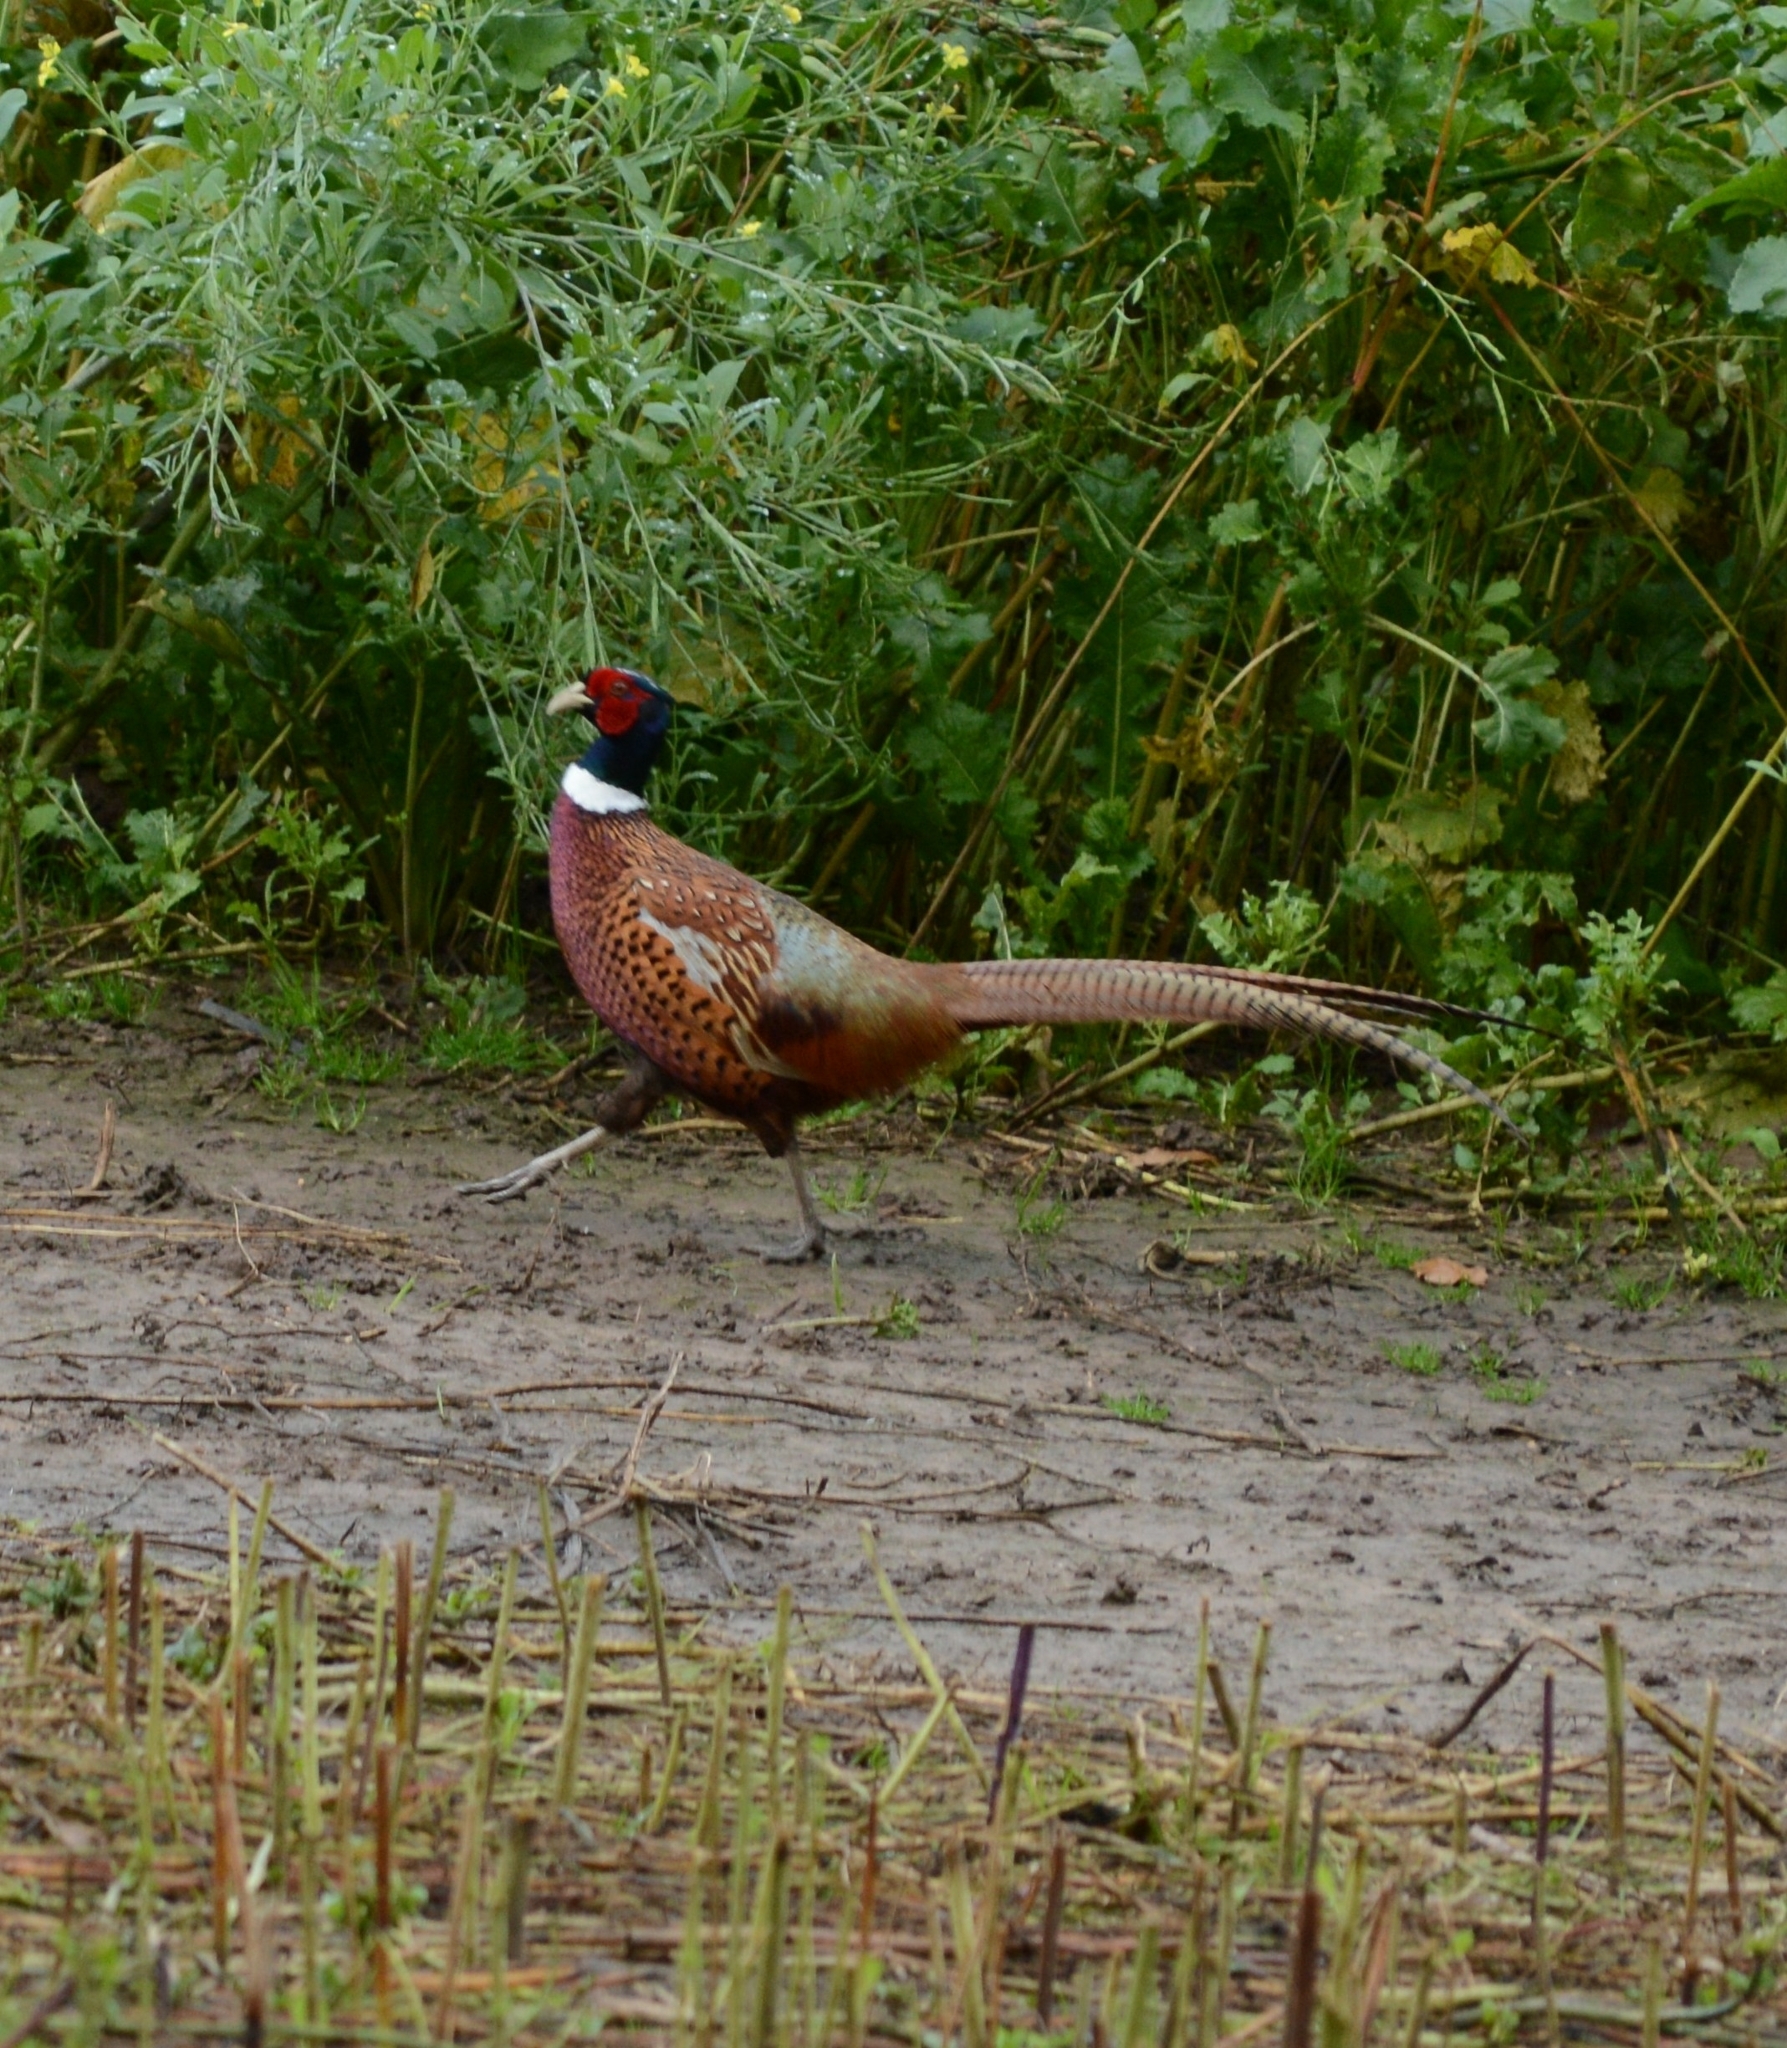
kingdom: Animalia
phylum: Chordata
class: Aves
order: Galliformes
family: Phasianidae
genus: Phasianus
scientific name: Phasianus colchicus
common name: Common pheasant
